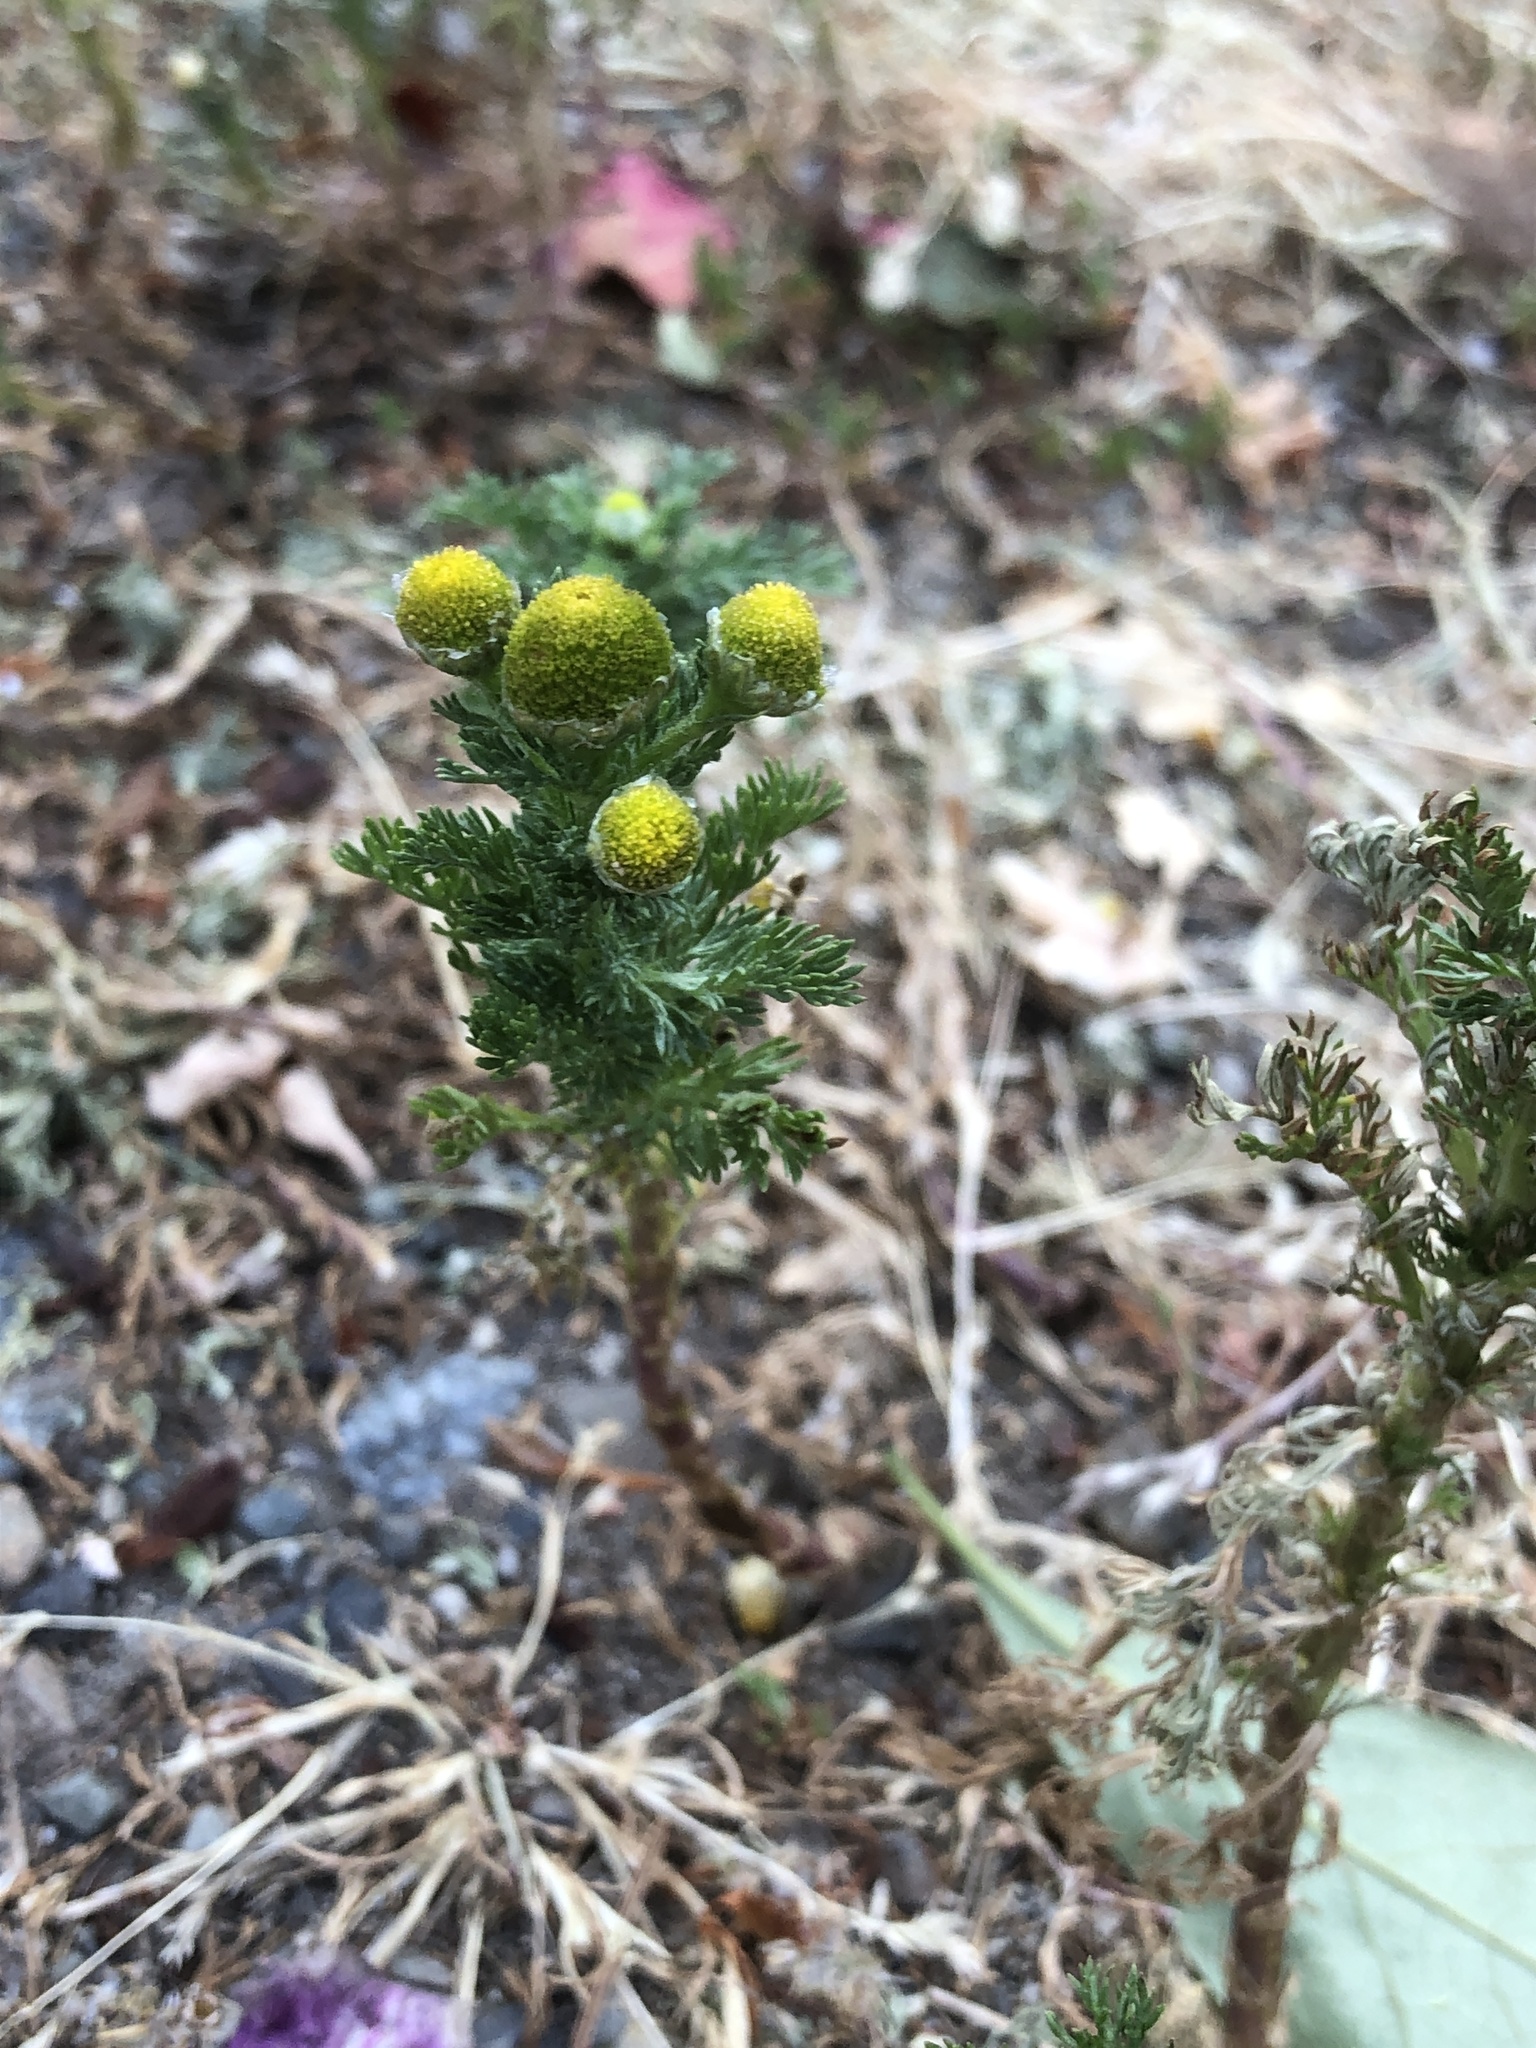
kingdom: Plantae
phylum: Tracheophyta
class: Magnoliopsida
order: Asterales
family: Asteraceae
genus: Matricaria
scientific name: Matricaria discoidea
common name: Disc mayweed
